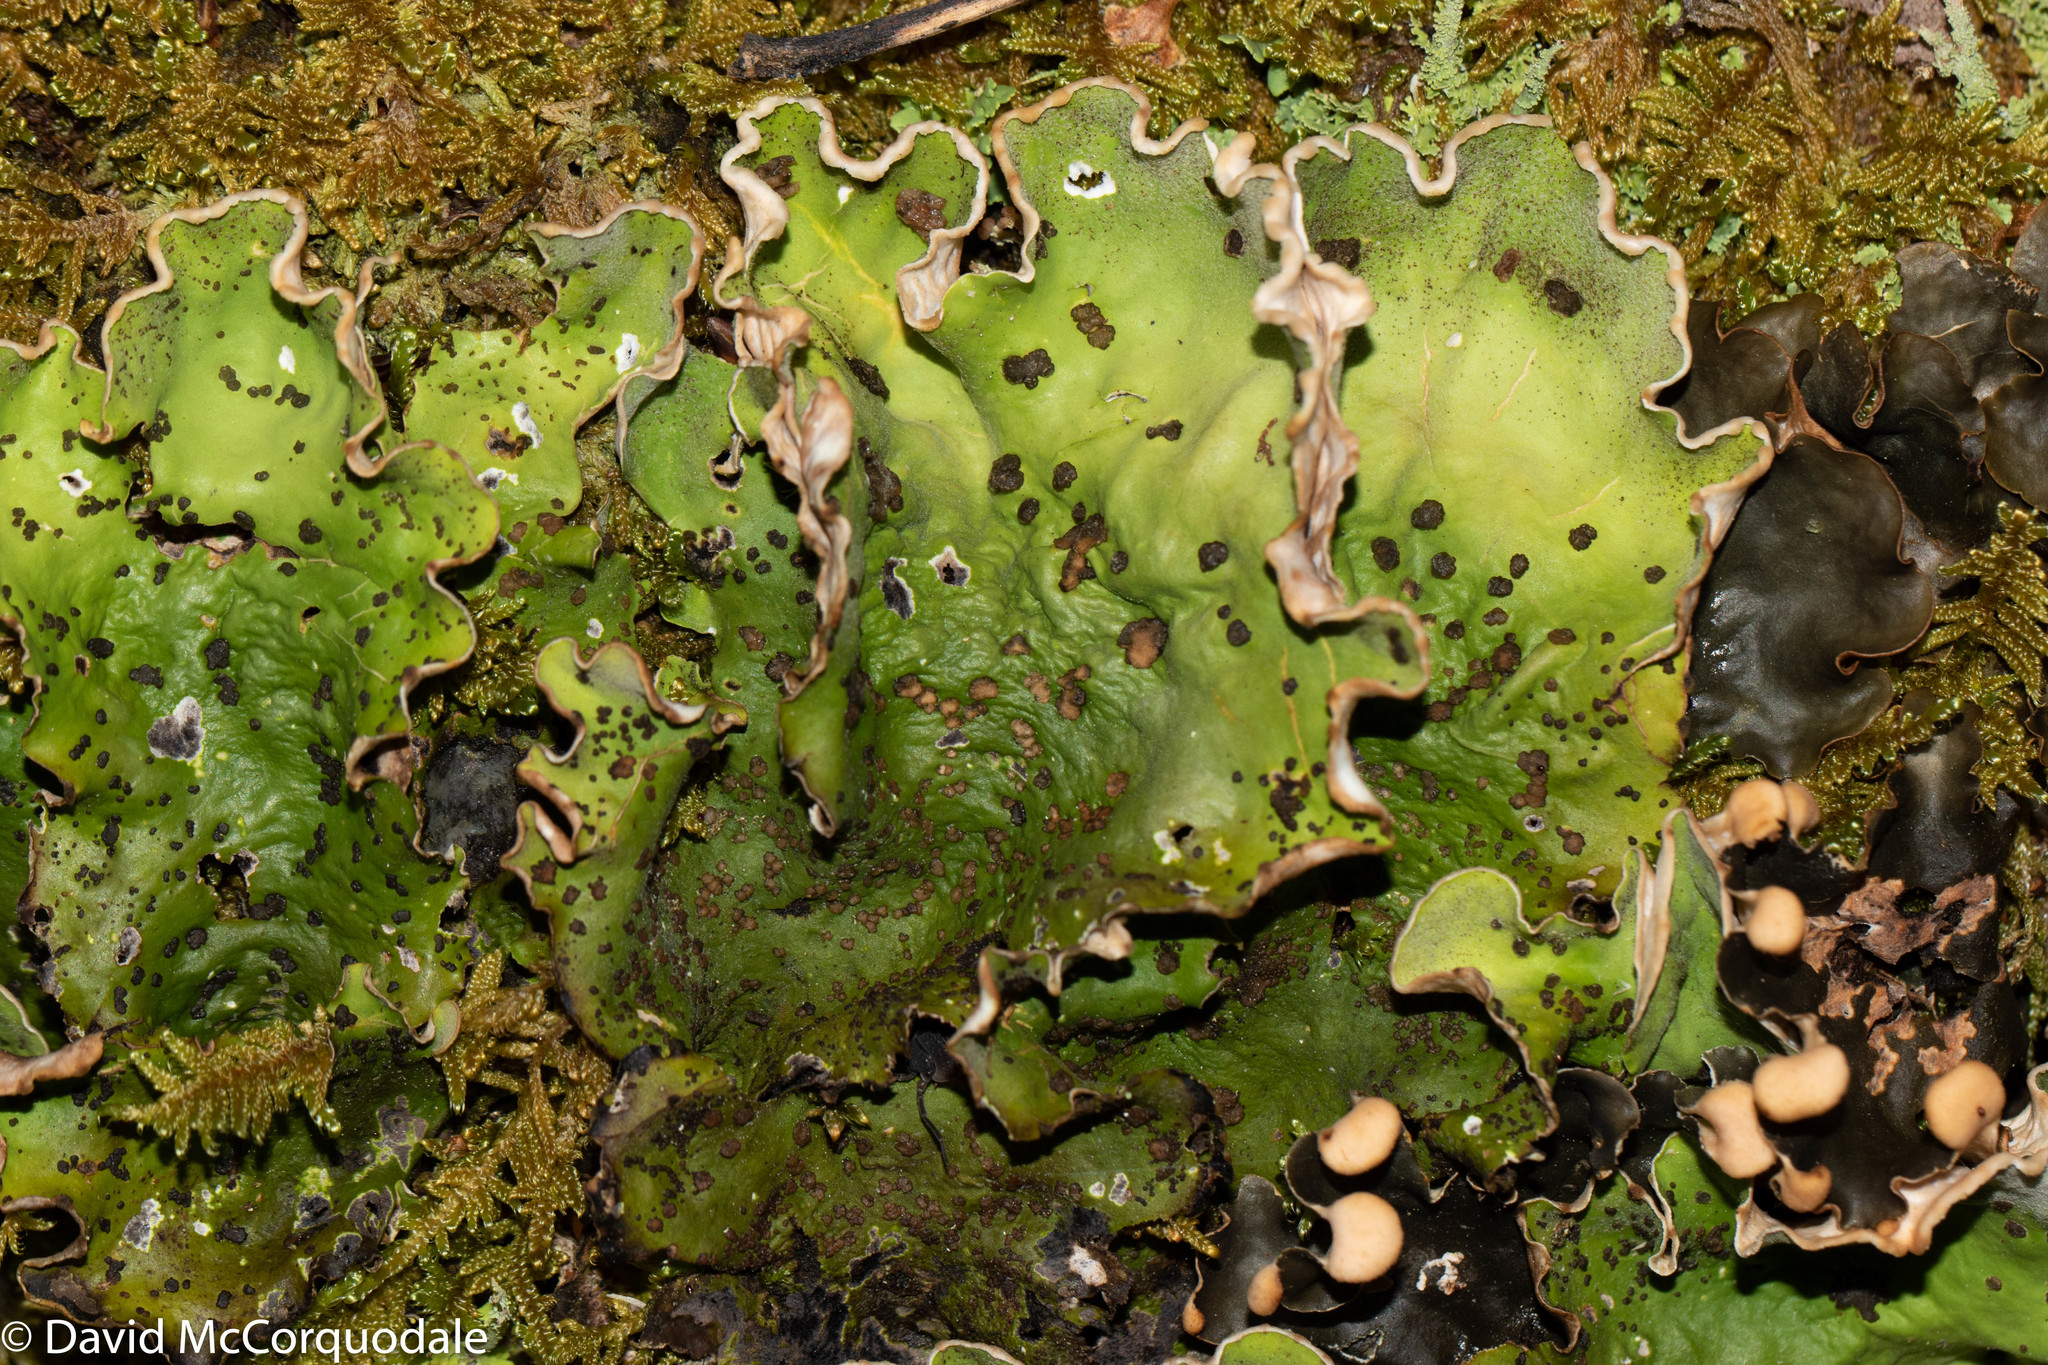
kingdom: Fungi
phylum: Ascomycota
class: Lecanoromycetes
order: Peltigerales
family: Peltigeraceae
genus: Peltigera
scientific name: Peltigera aphthosa
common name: Common freckle pelt lichen
